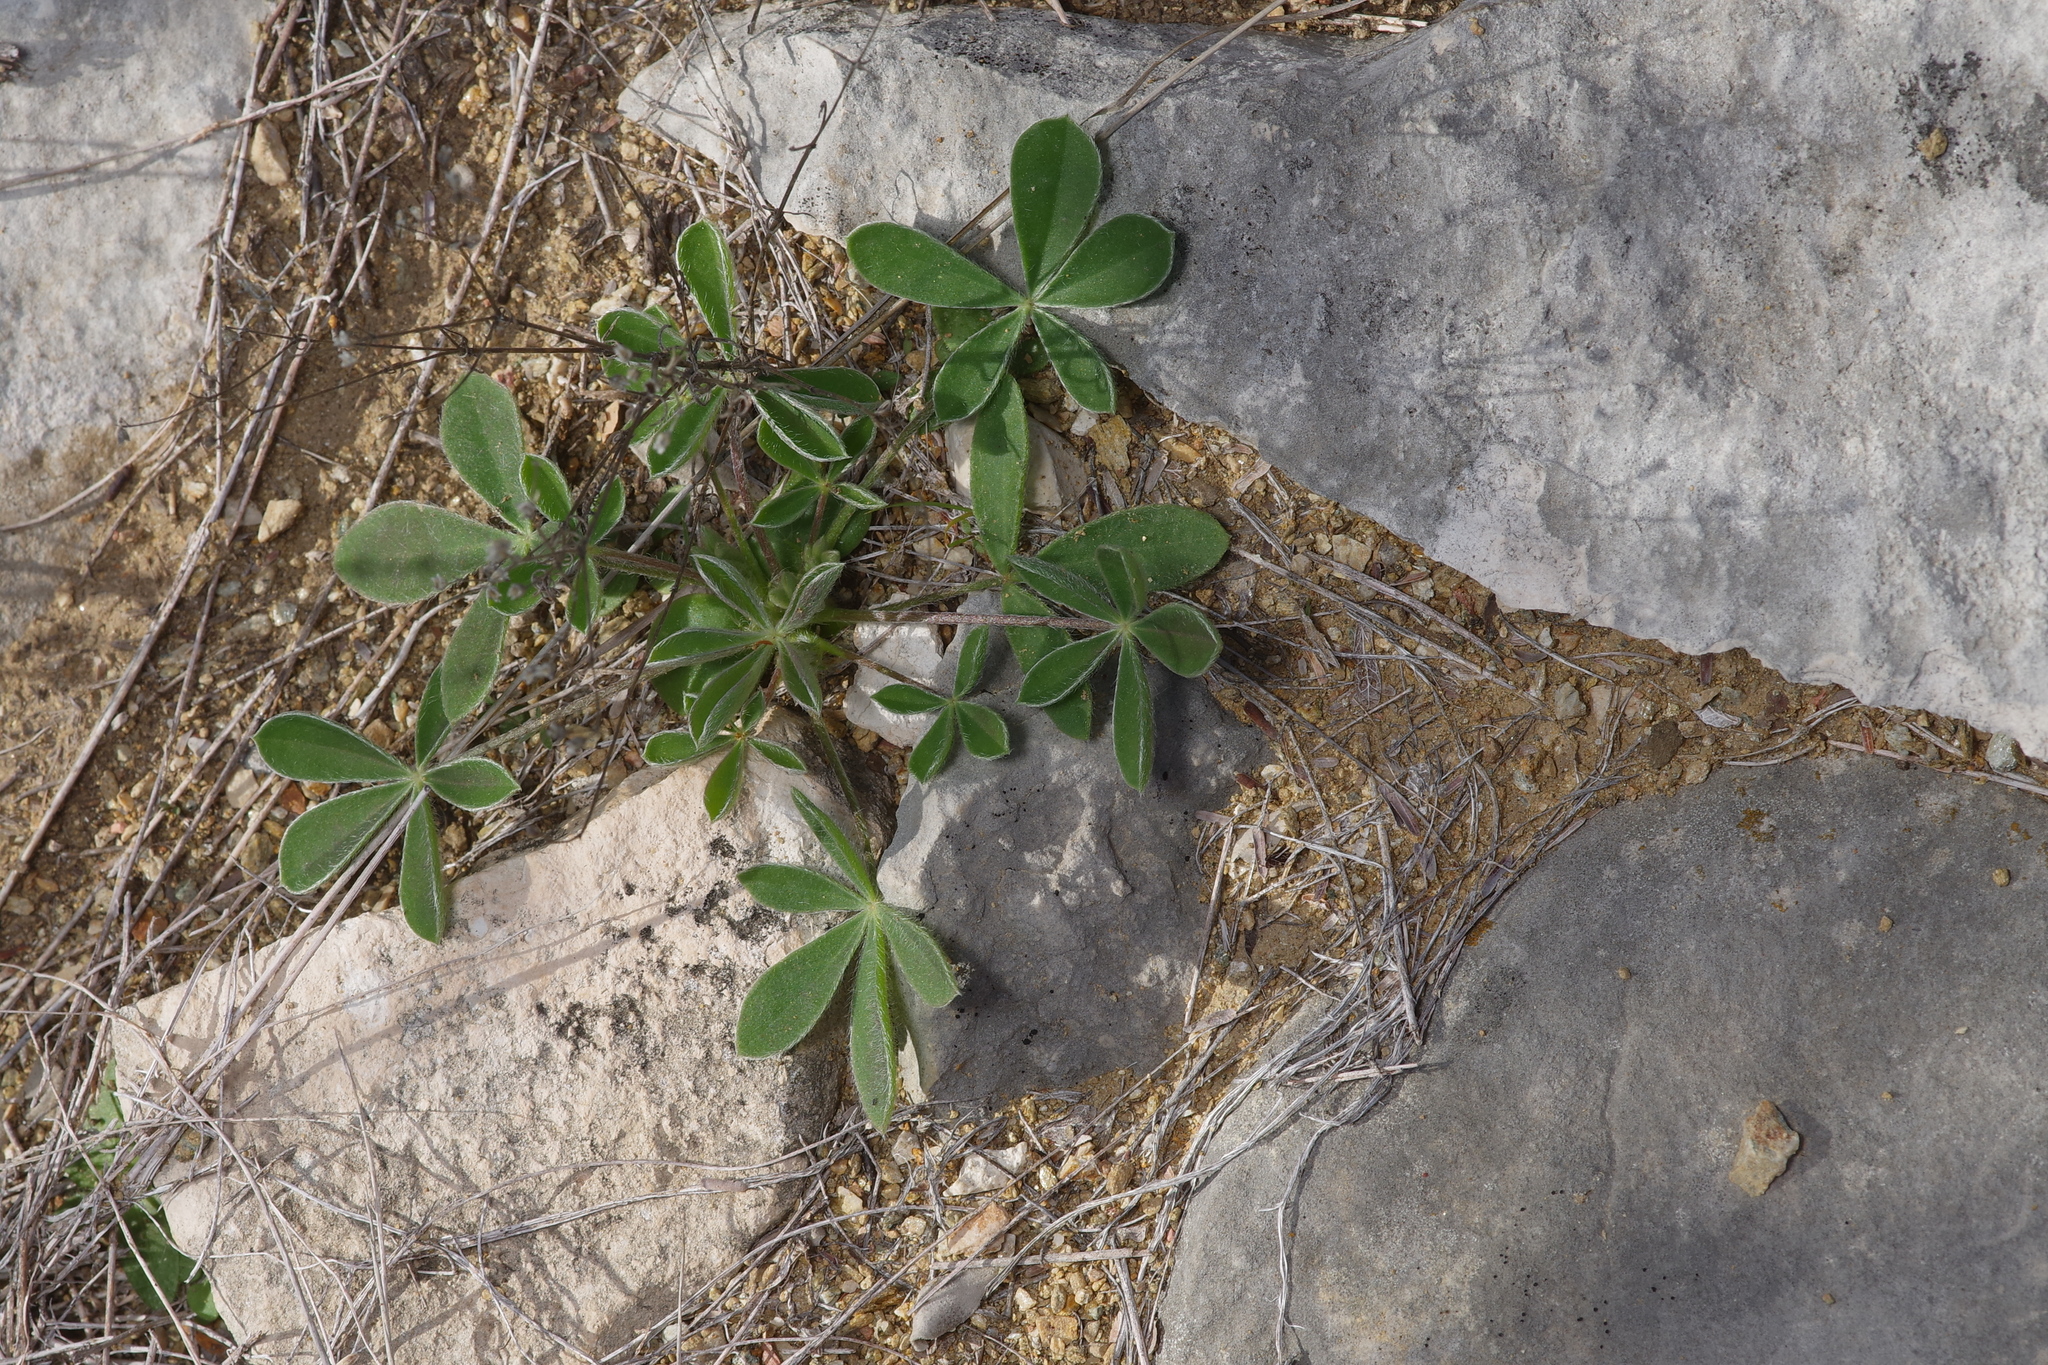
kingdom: Plantae
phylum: Tracheophyta
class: Magnoliopsida
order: Fabales
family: Fabaceae
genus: Lupinus
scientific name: Lupinus texensis
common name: Texas bluebonnet
